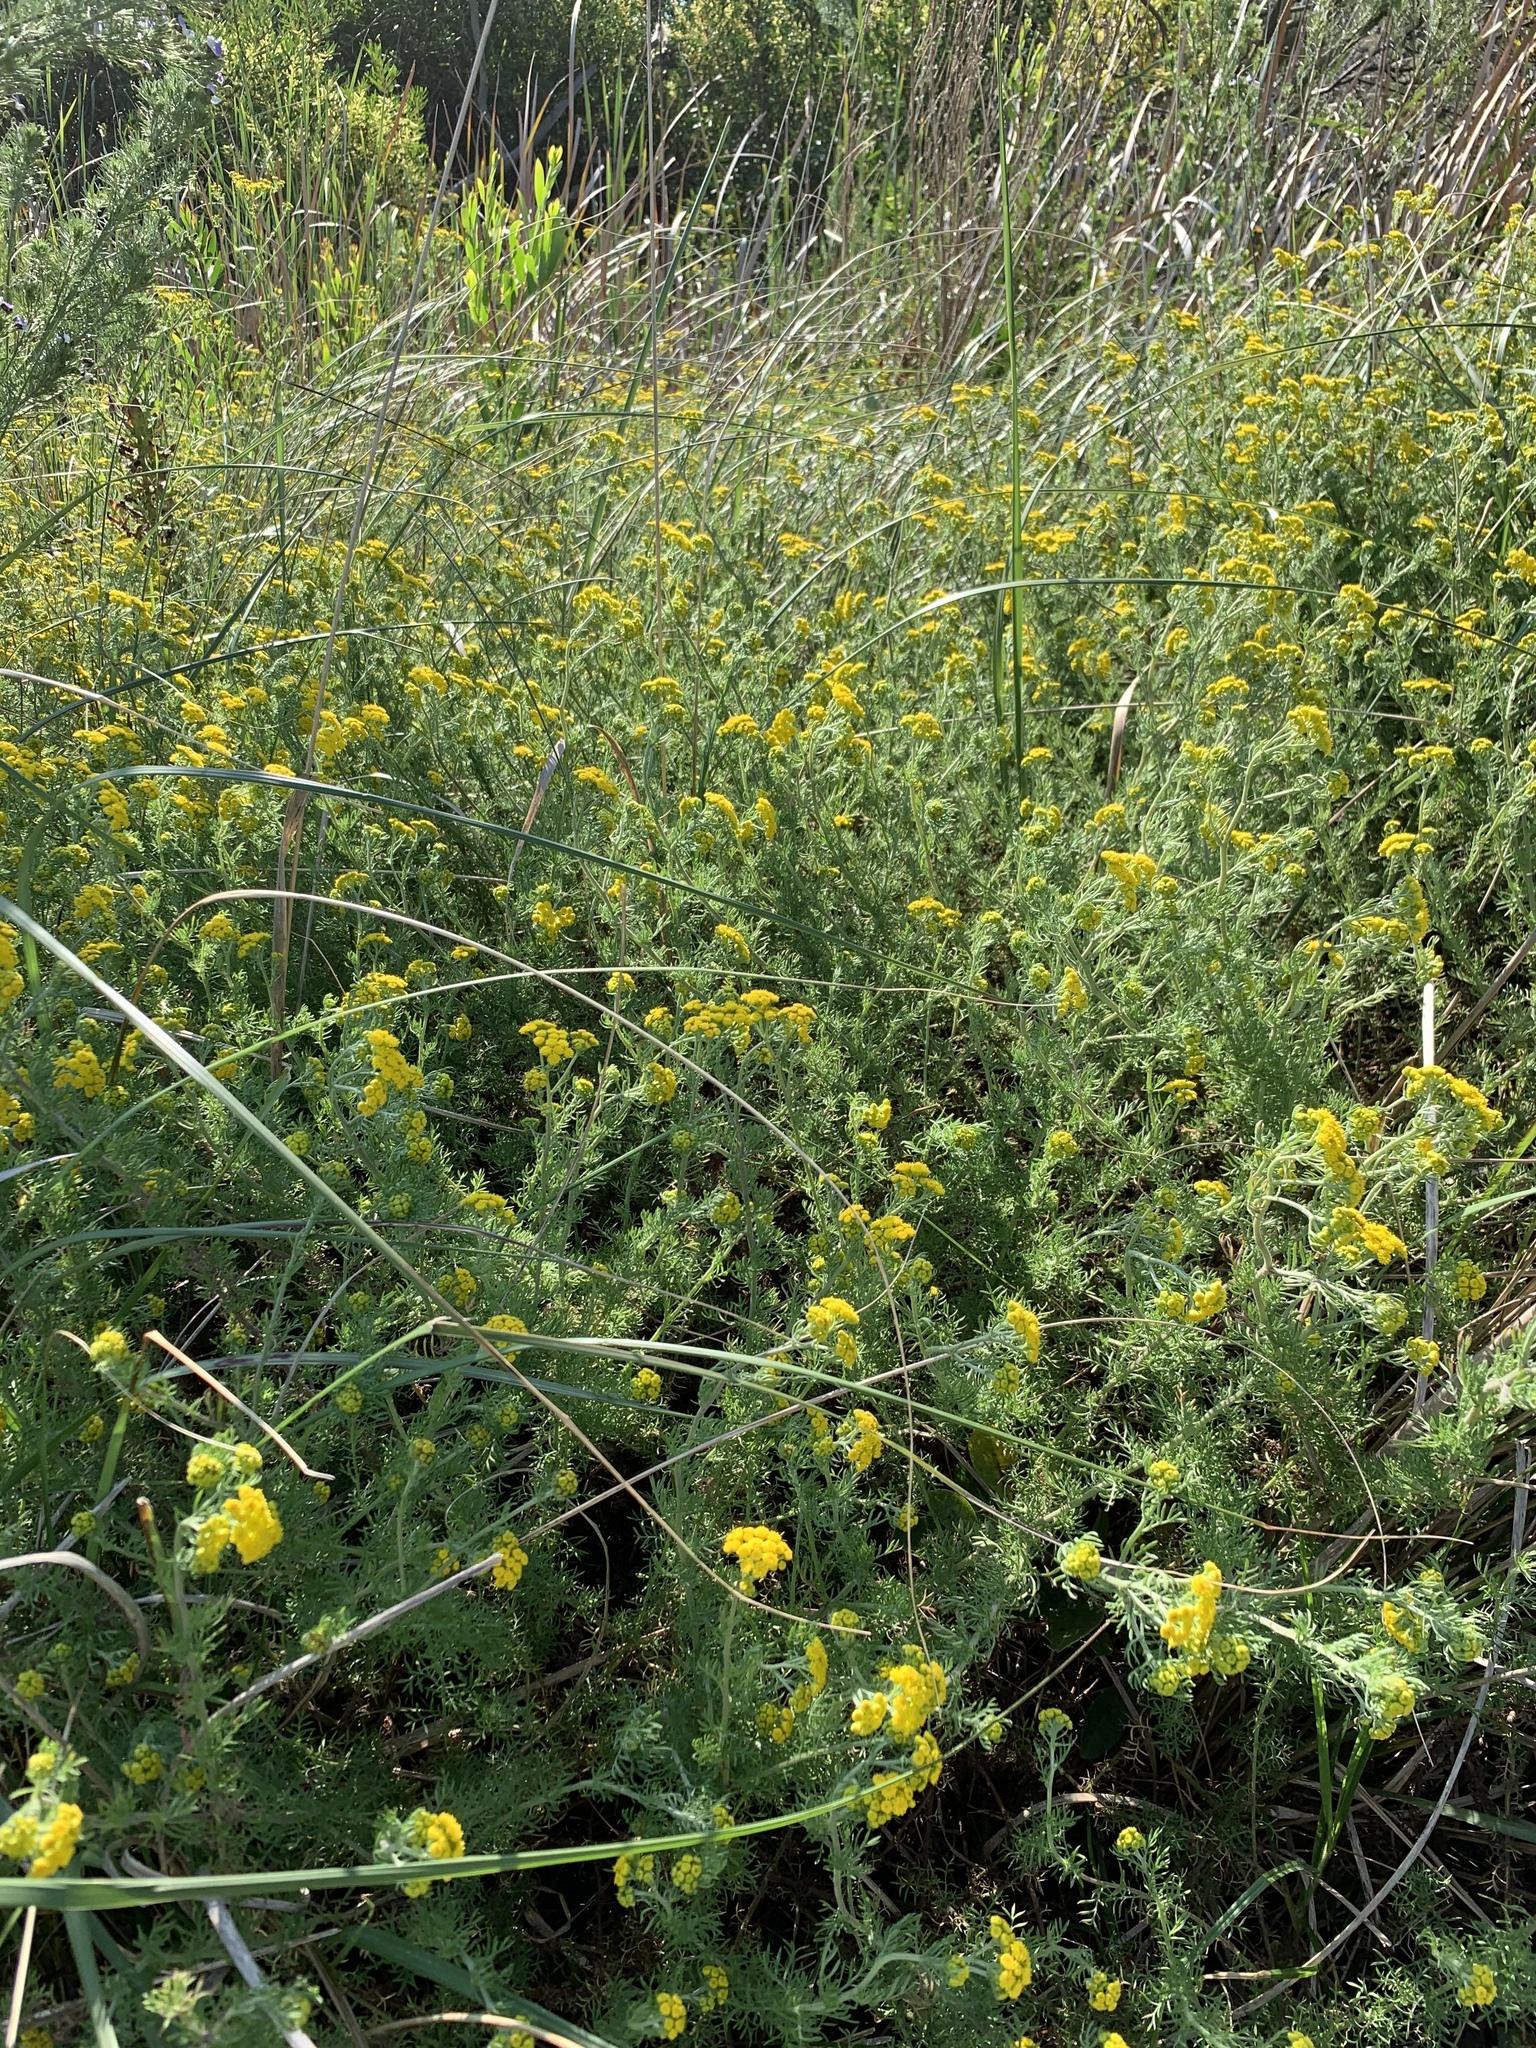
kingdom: Plantae
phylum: Tracheophyta
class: Magnoliopsida
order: Asterales
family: Asteraceae
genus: Hippia
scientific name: Hippia frutescens
